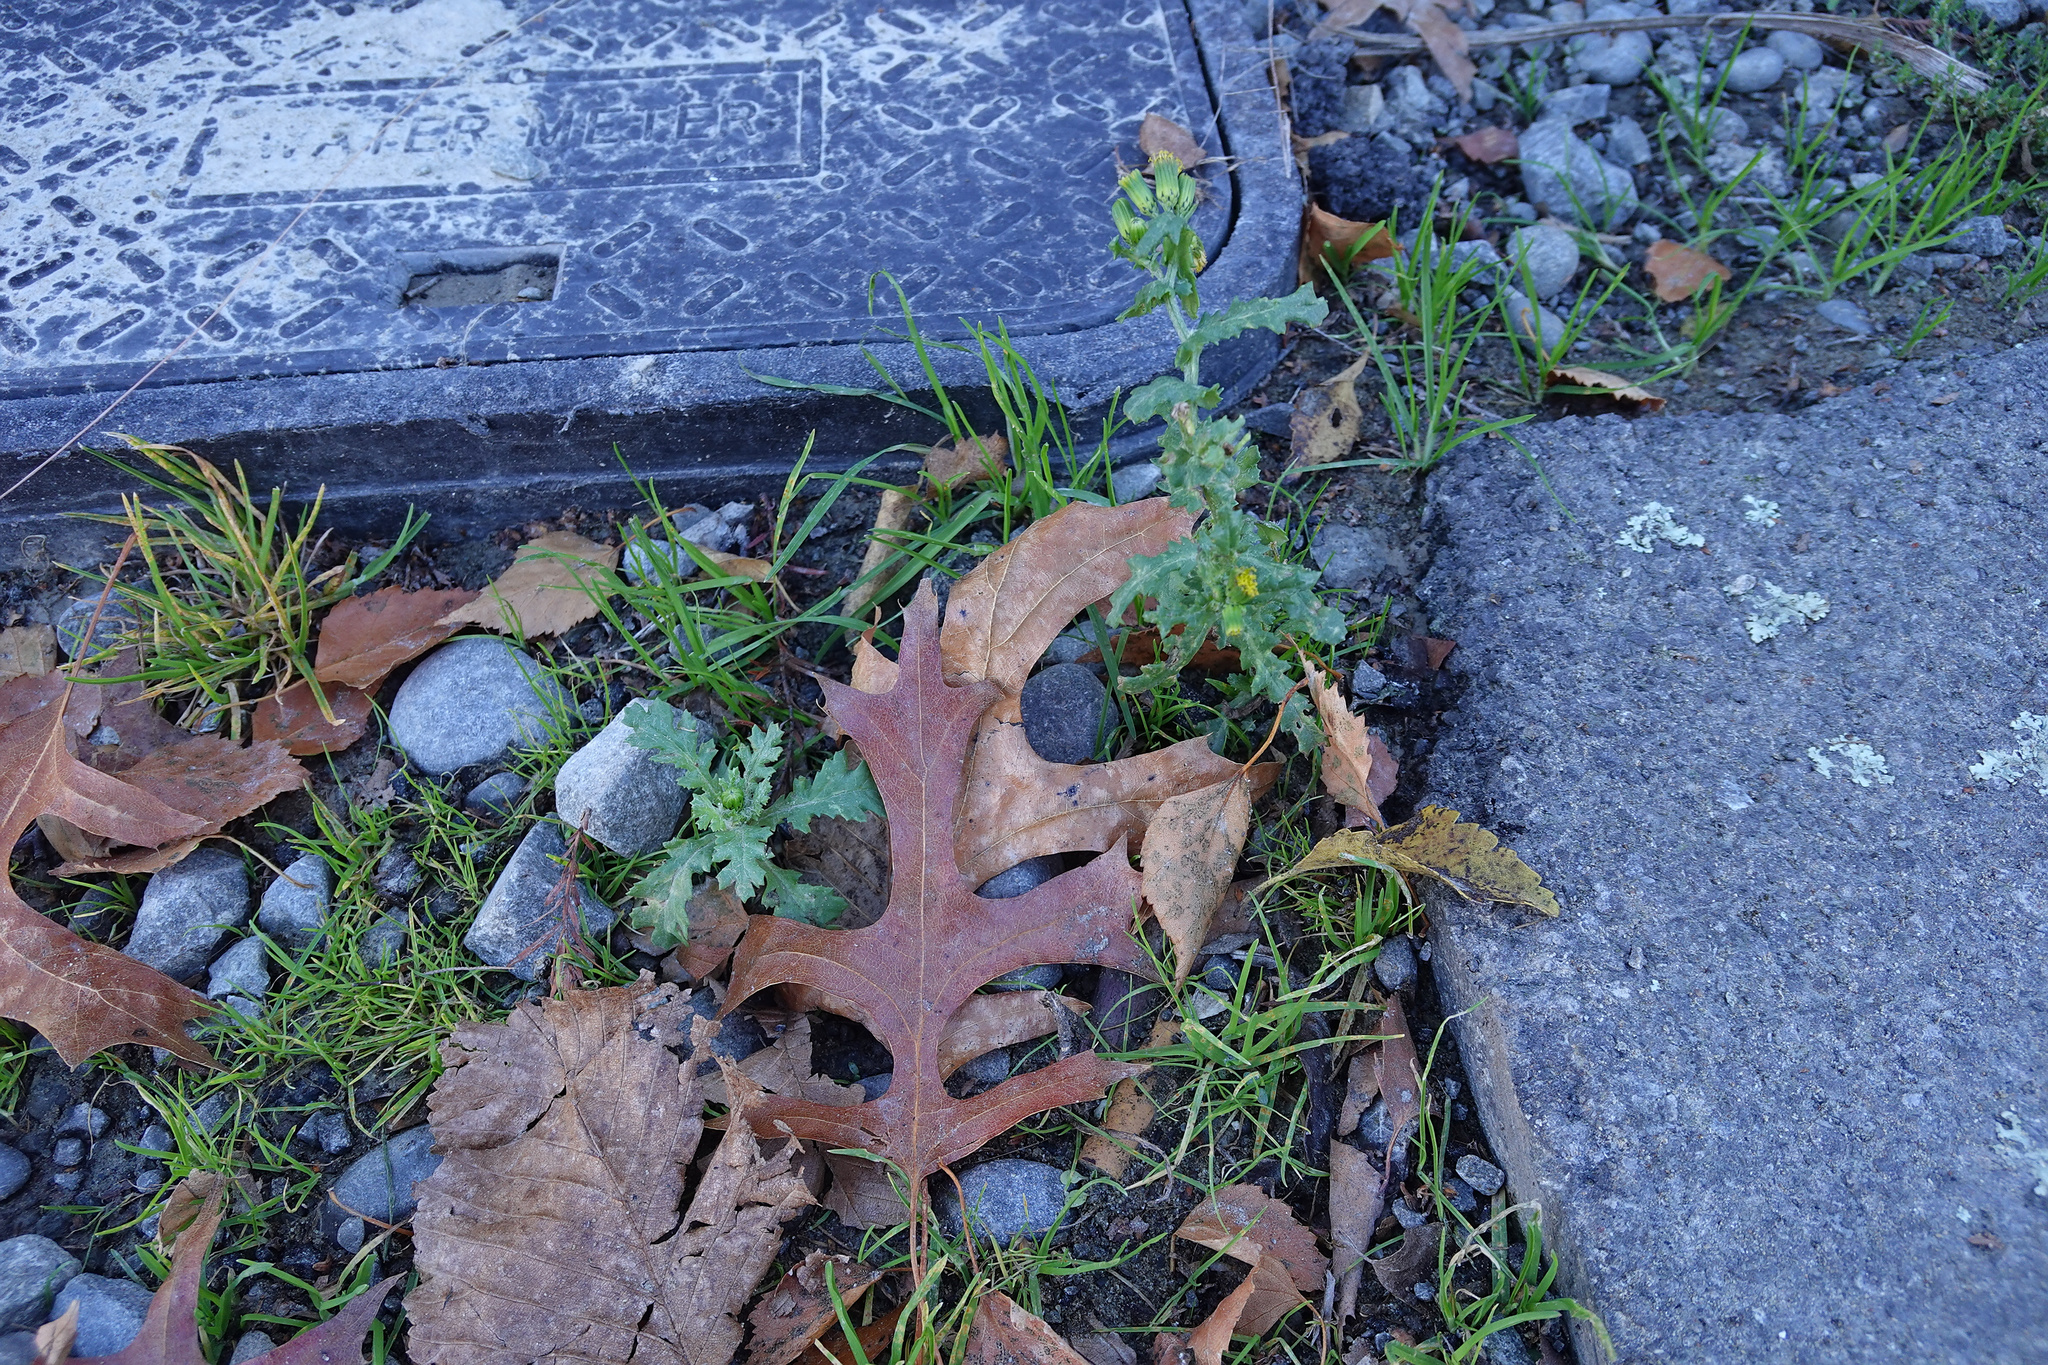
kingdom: Plantae
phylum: Tracheophyta
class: Magnoliopsida
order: Asterales
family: Asteraceae
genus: Senecio
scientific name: Senecio vulgaris
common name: Old-man-in-the-spring
